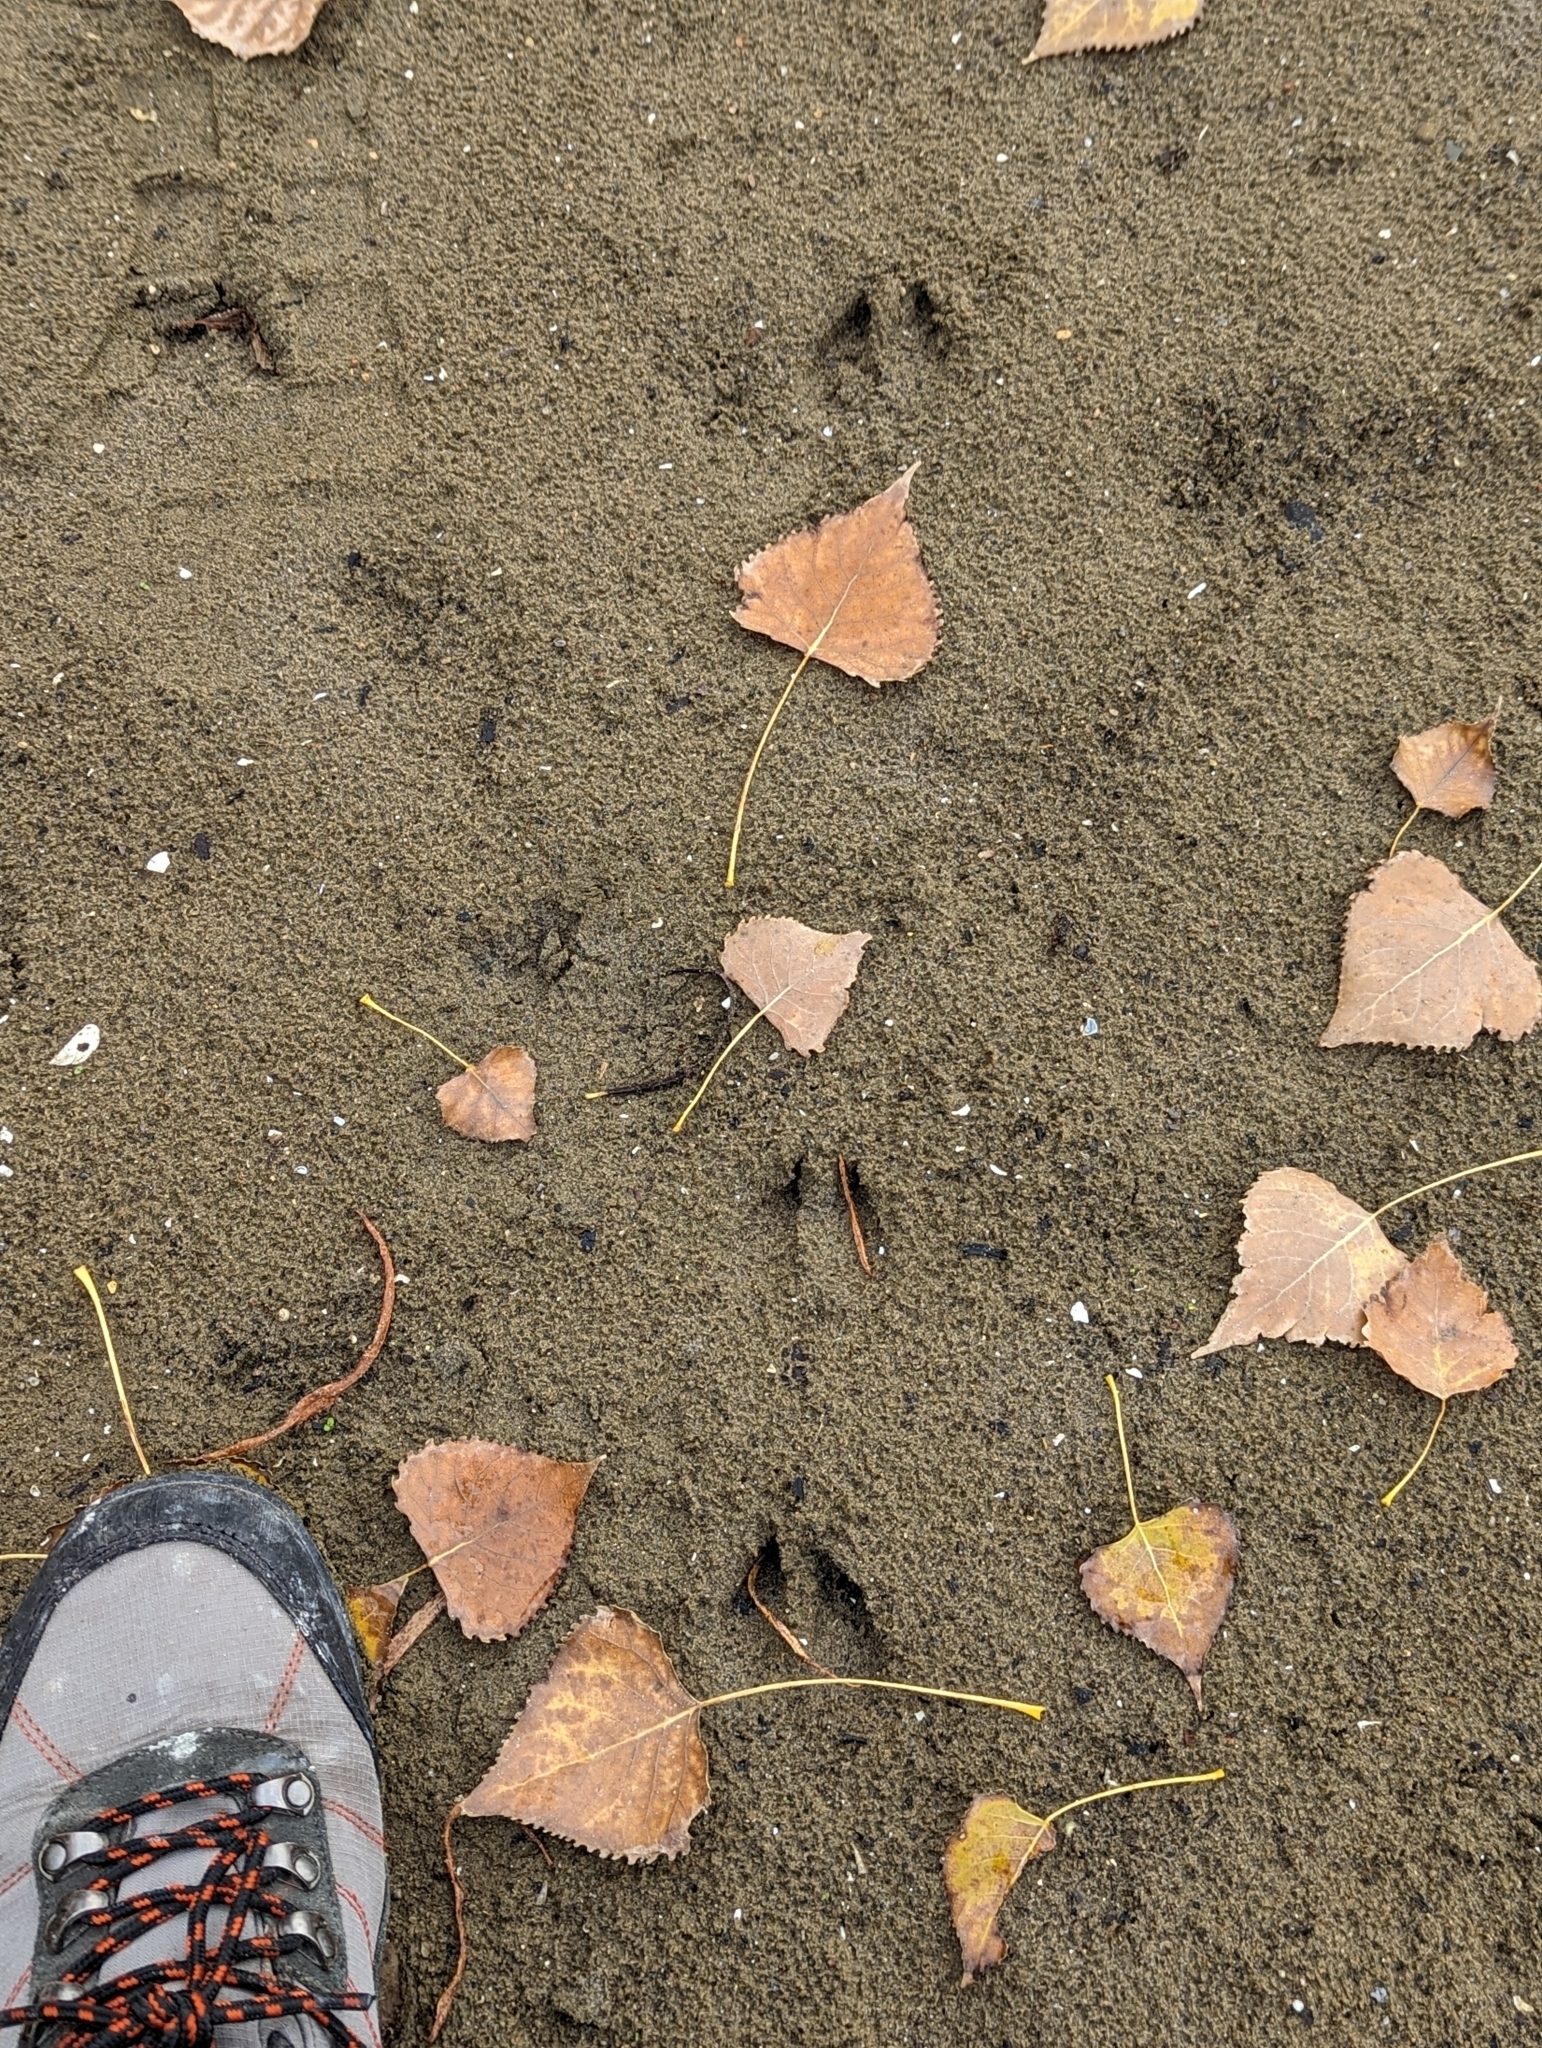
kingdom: Animalia
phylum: Chordata
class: Mammalia
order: Artiodactyla
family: Cervidae
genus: Odocoileus
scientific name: Odocoileus virginianus
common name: White-tailed deer
